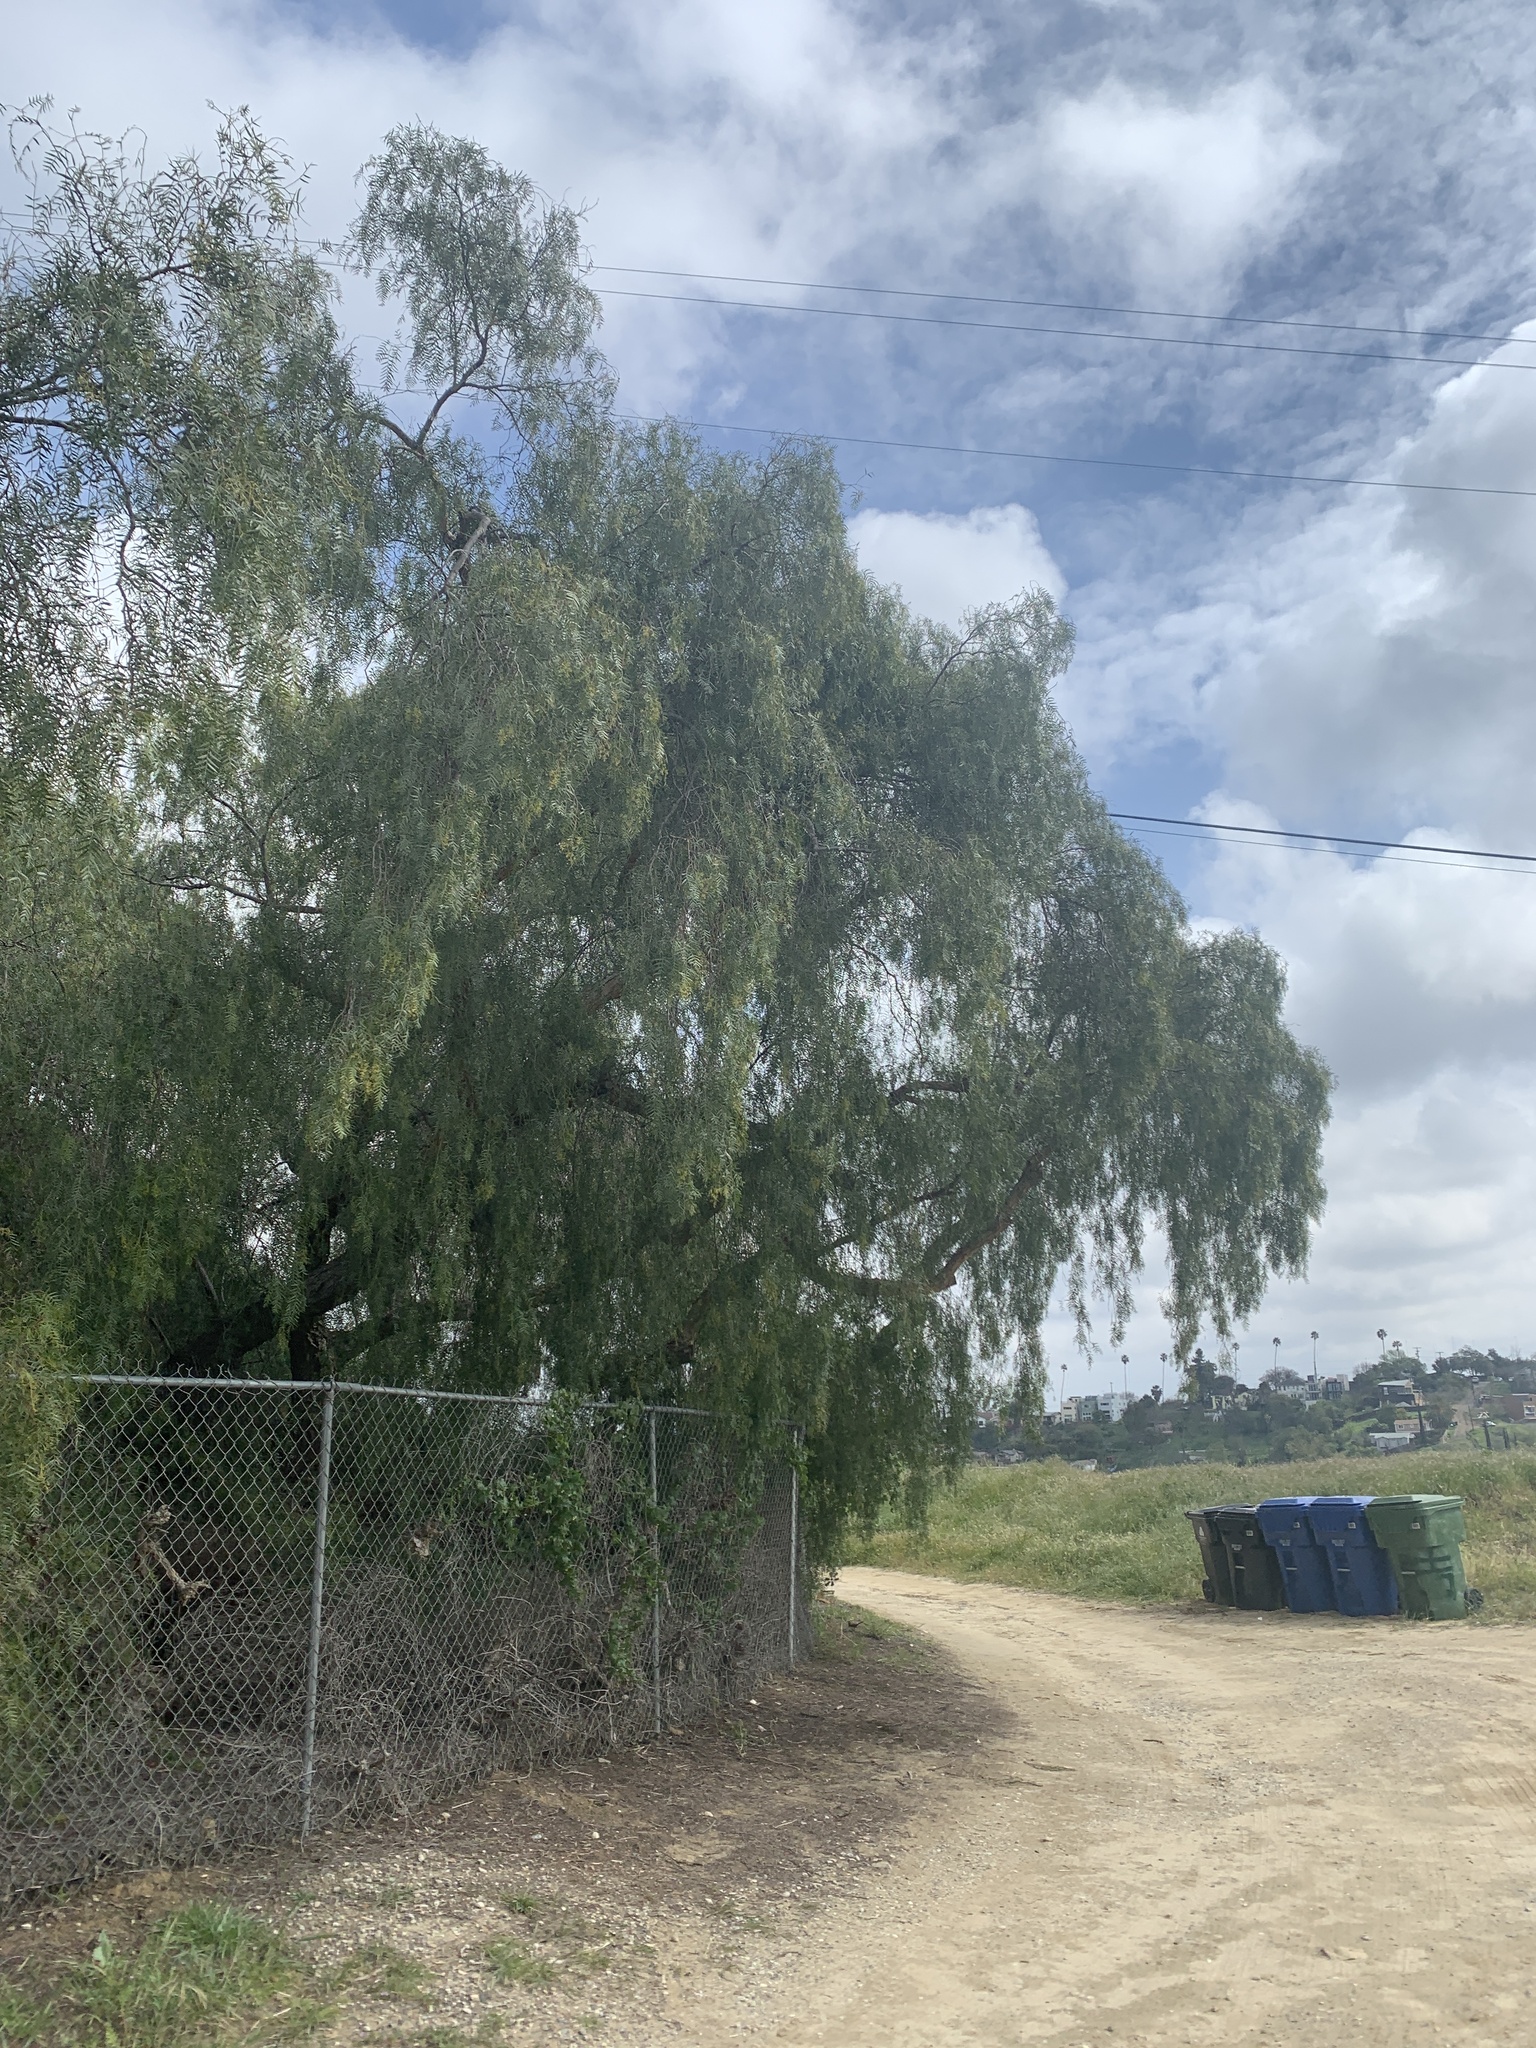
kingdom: Plantae
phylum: Tracheophyta
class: Magnoliopsida
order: Sapindales
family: Anacardiaceae
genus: Schinus
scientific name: Schinus molle
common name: Peruvian peppertree
